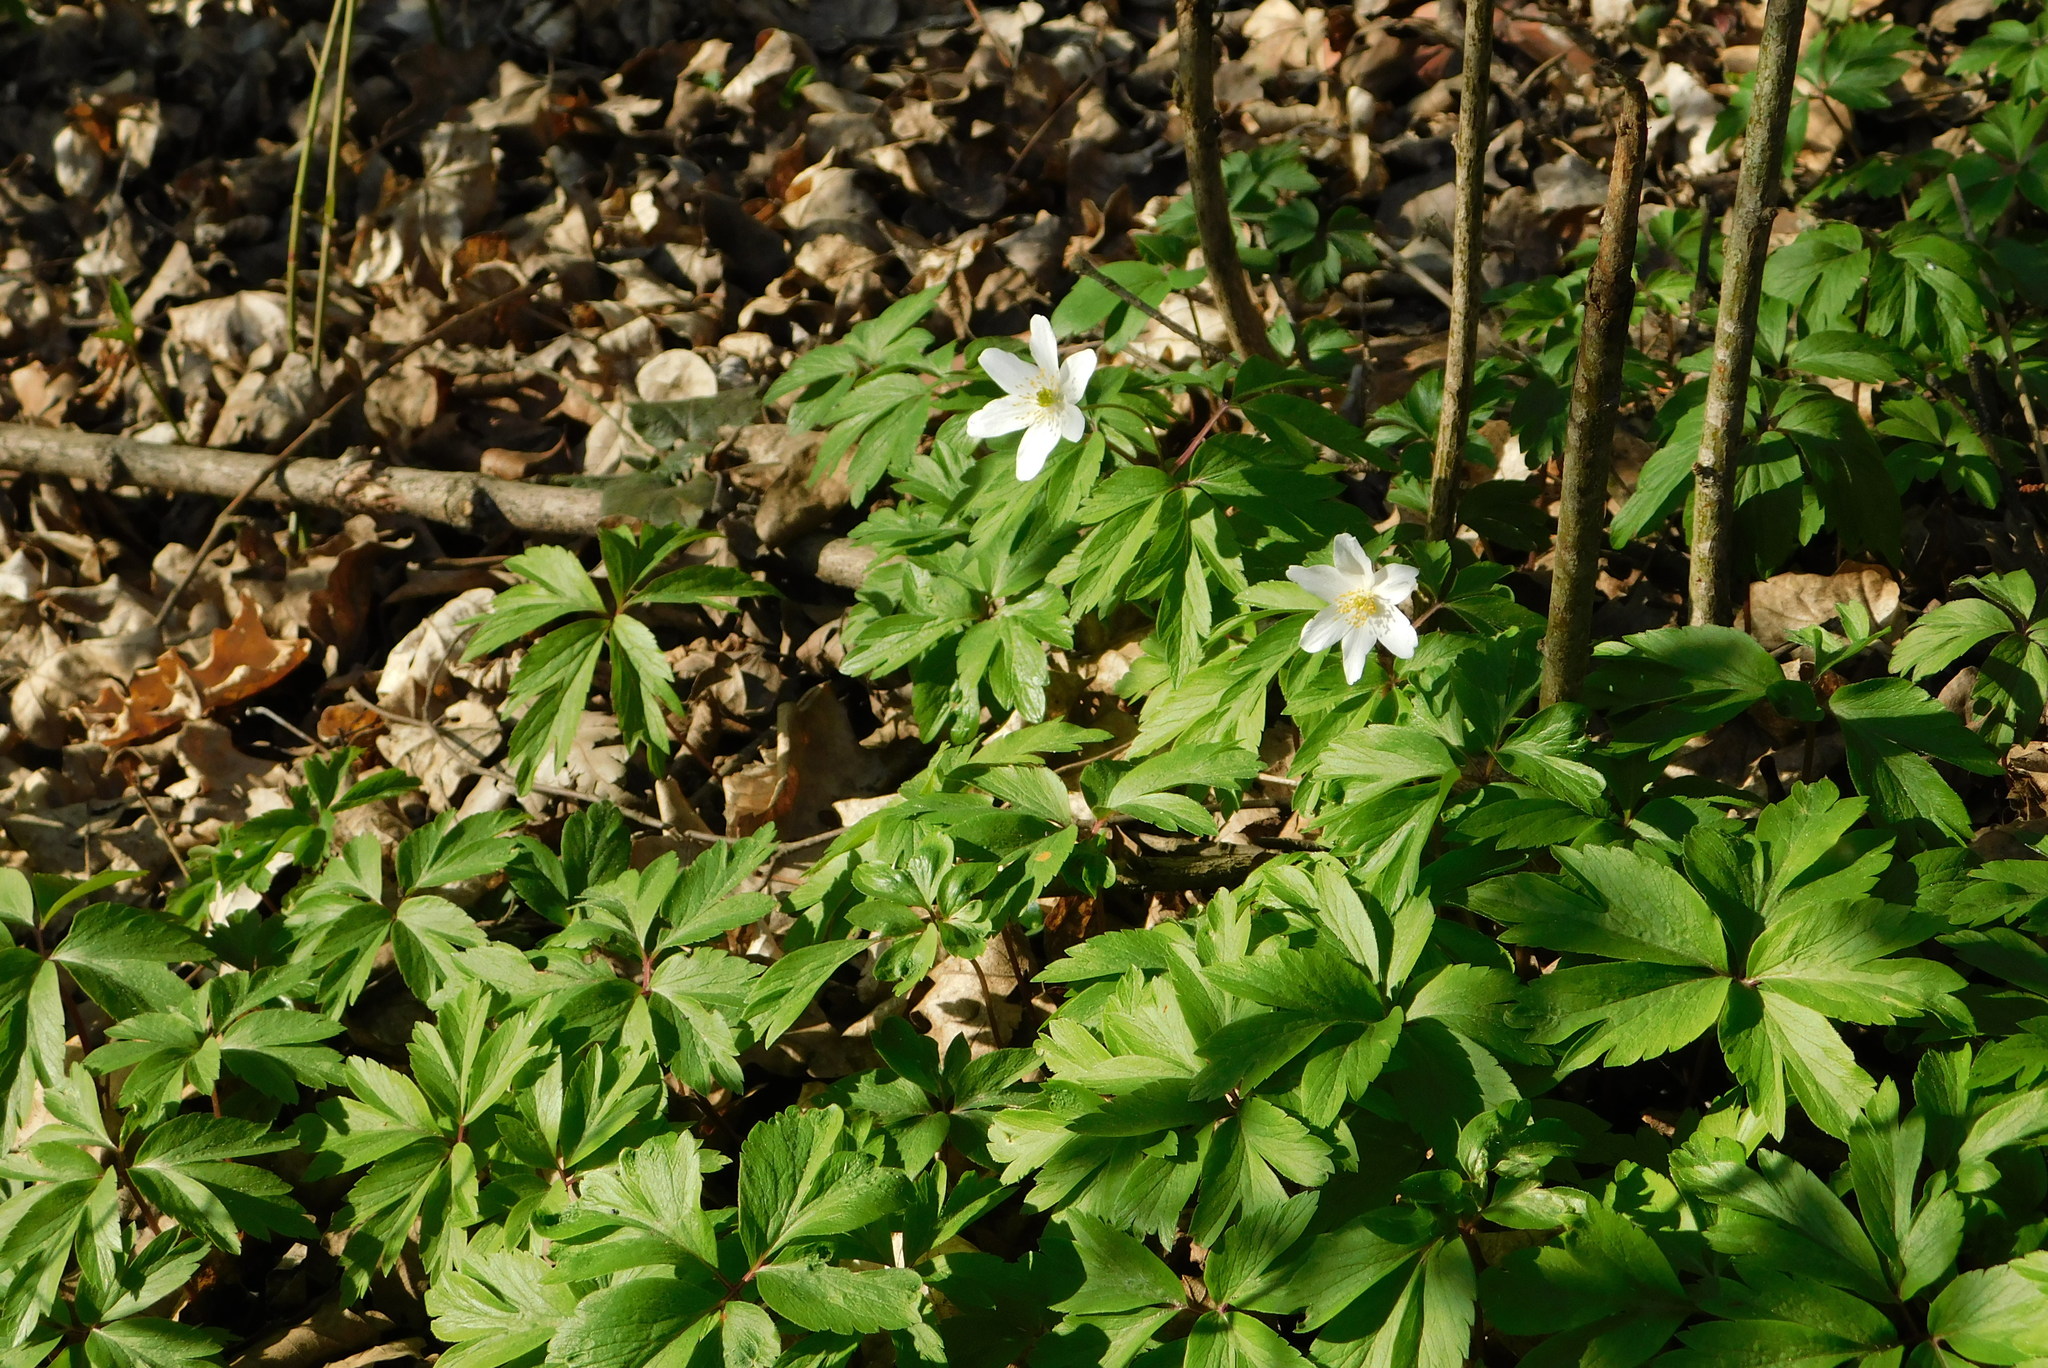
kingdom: Plantae
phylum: Tracheophyta
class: Magnoliopsida
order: Ranunculales
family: Ranunculaceae
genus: Anemone
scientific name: Anemone nemorosa
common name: Wood anemone
